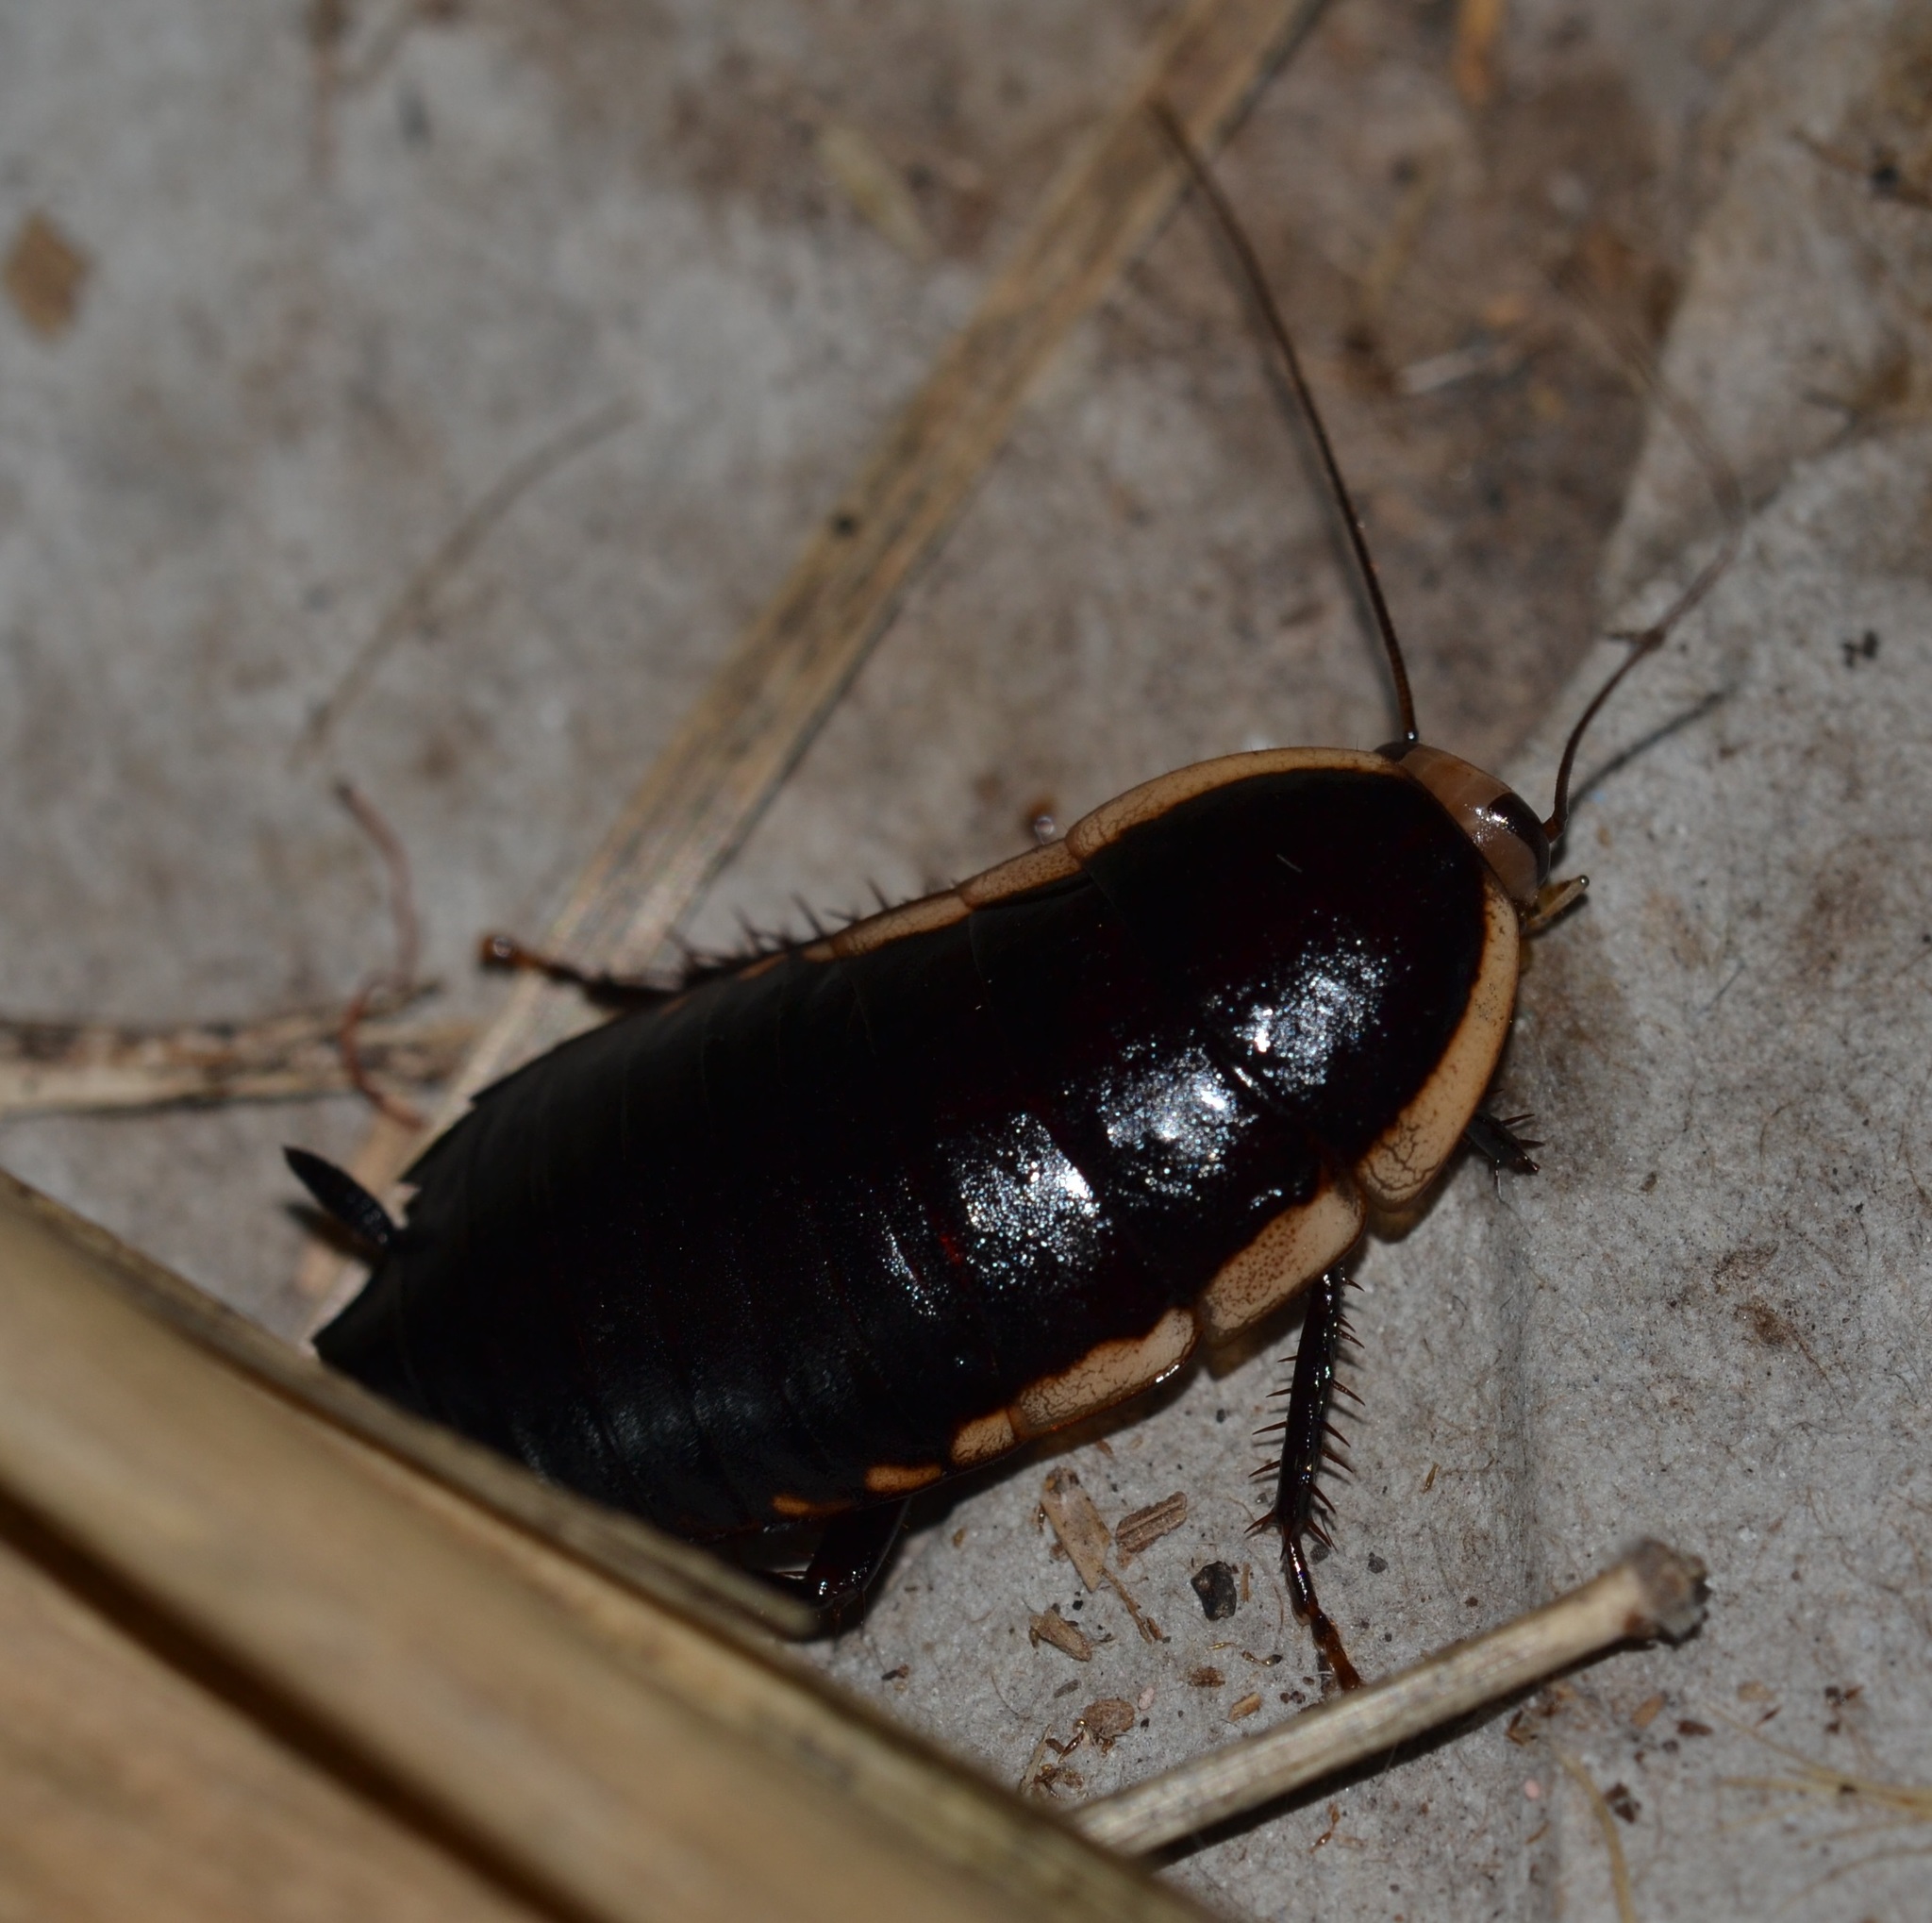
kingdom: Animalia
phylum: Arthropoda
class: Insecta
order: Blattodea
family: Blattidae
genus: Melanozosteria
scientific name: Melanozosteria soror
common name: White-edged wingless cockroach
